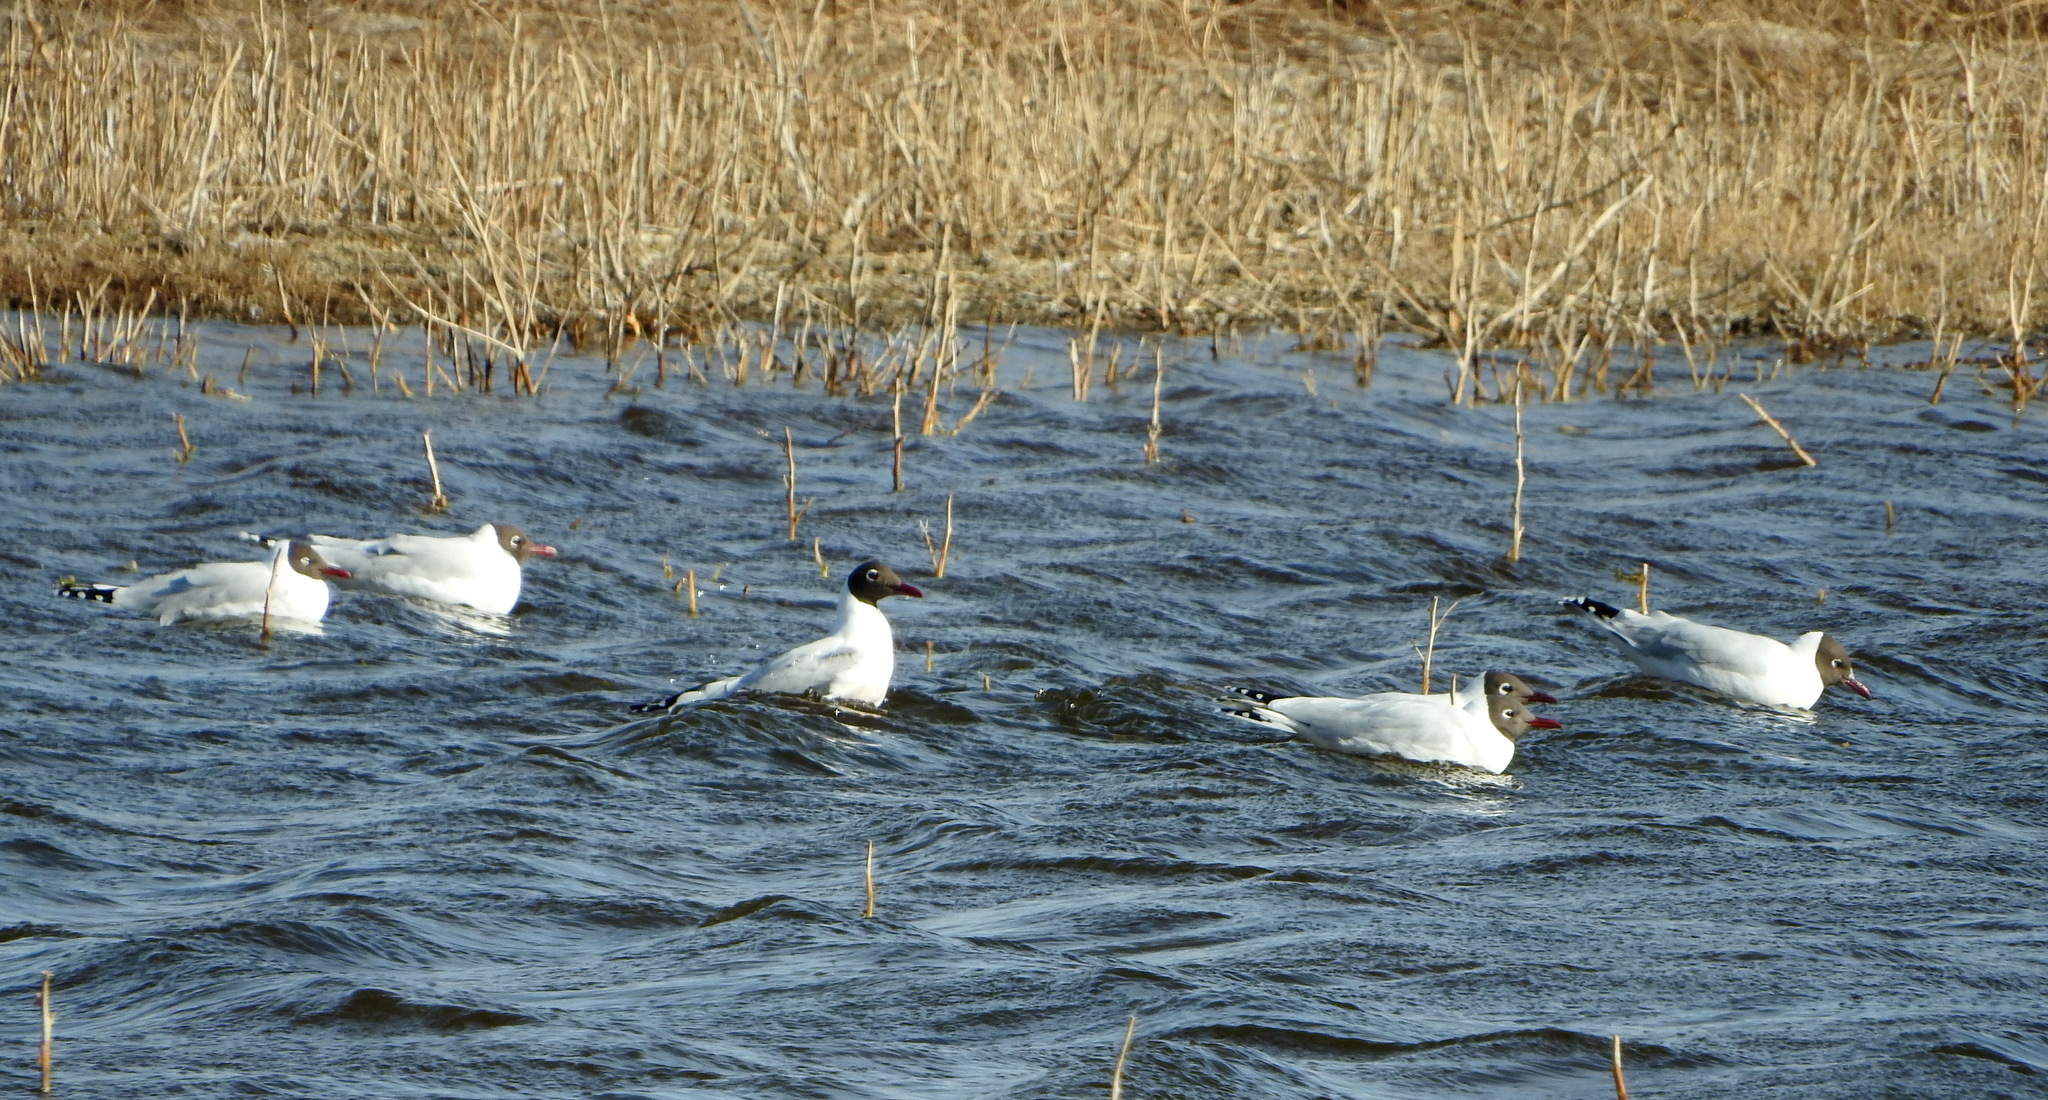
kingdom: Animalia
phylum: Chordata
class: Aves
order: Charadriiformes
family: Laridae
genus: Chroicocephalus
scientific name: Chroicocephalus maculipennis
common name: Brown-hooded gull
